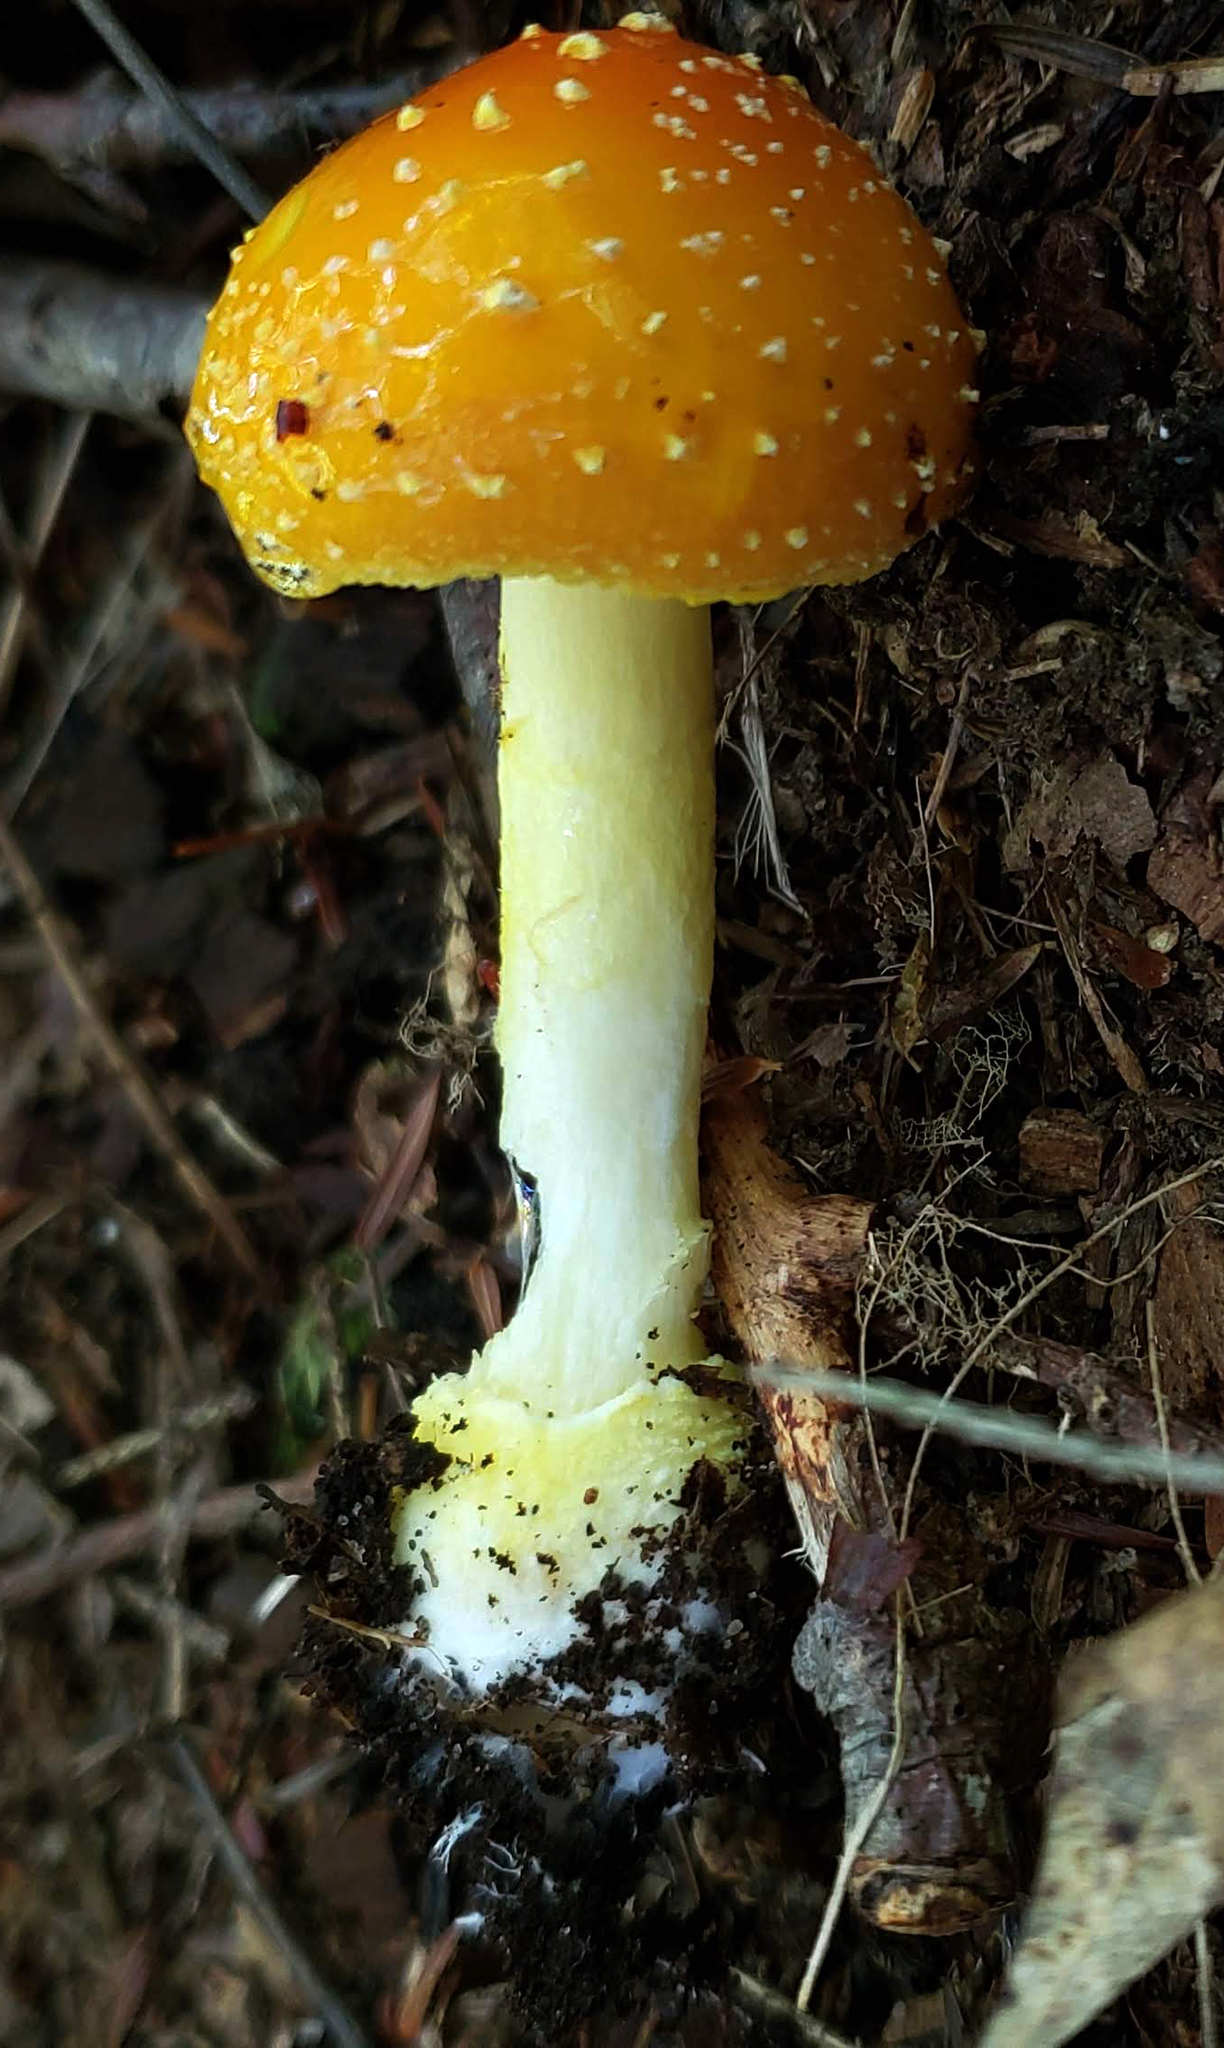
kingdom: Fungi
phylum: Basidiomycota
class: Agaricomycetes
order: Agaricales
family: Amanitaceae
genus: Amanita
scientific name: Amanita flavoconia
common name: Yellow patches
